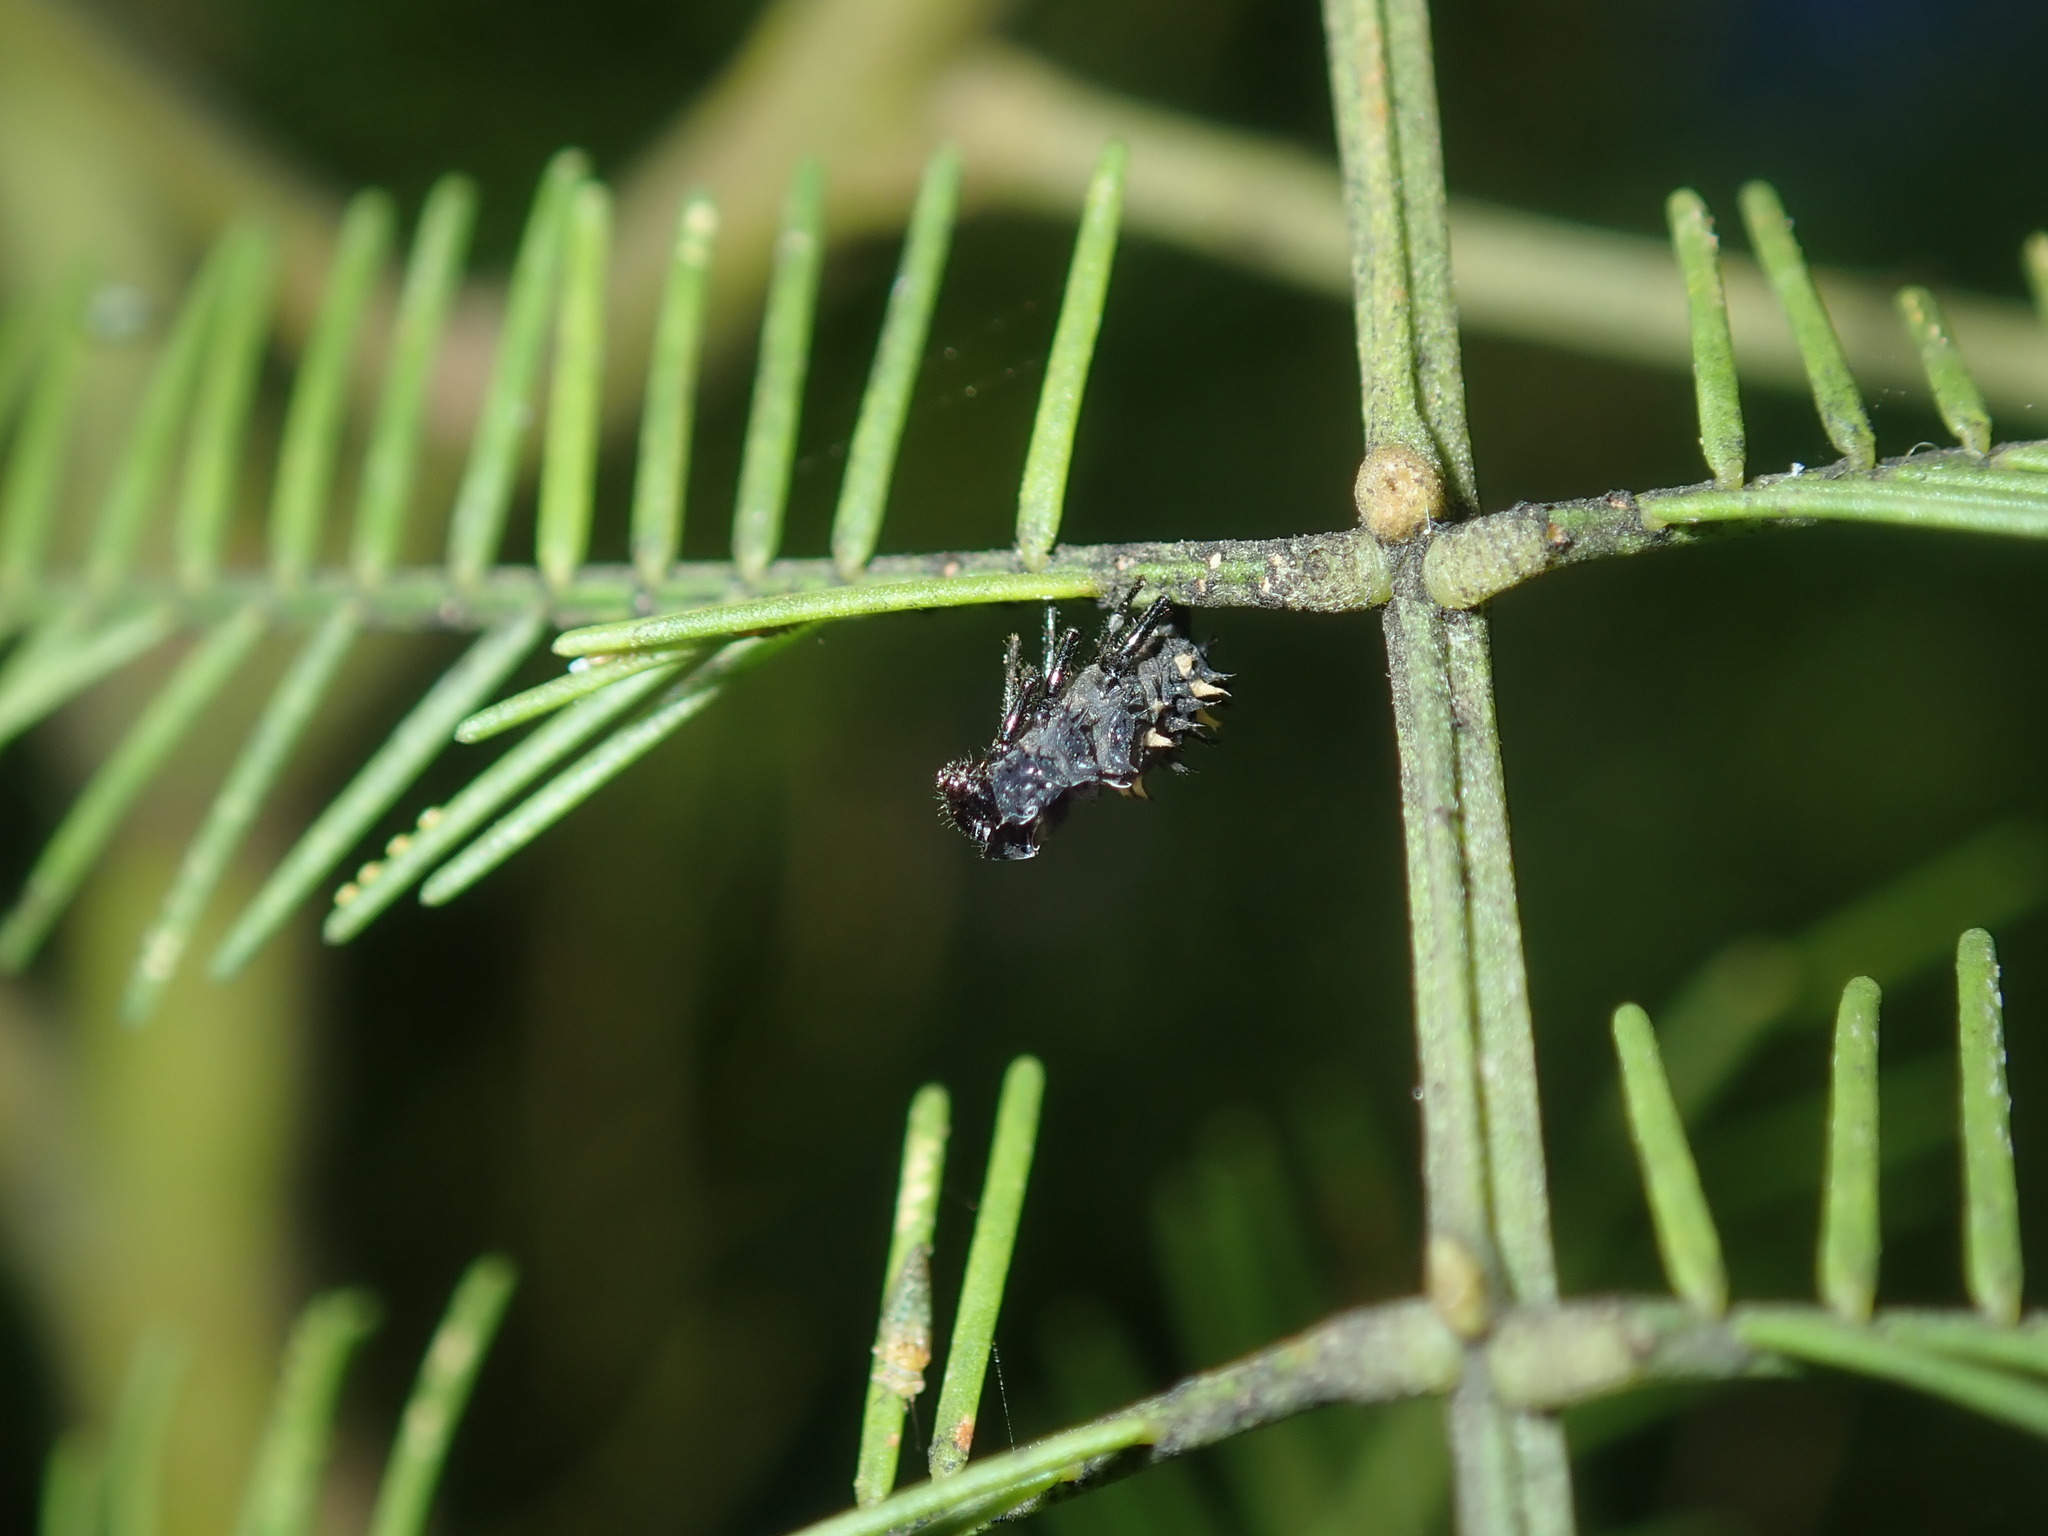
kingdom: Animalia
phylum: Arthropoda
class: Insecta
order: Coleoptera
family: Coccinellidae
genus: Harmonia
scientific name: Harmonia conformis
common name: Common spotted ladybird beetle
